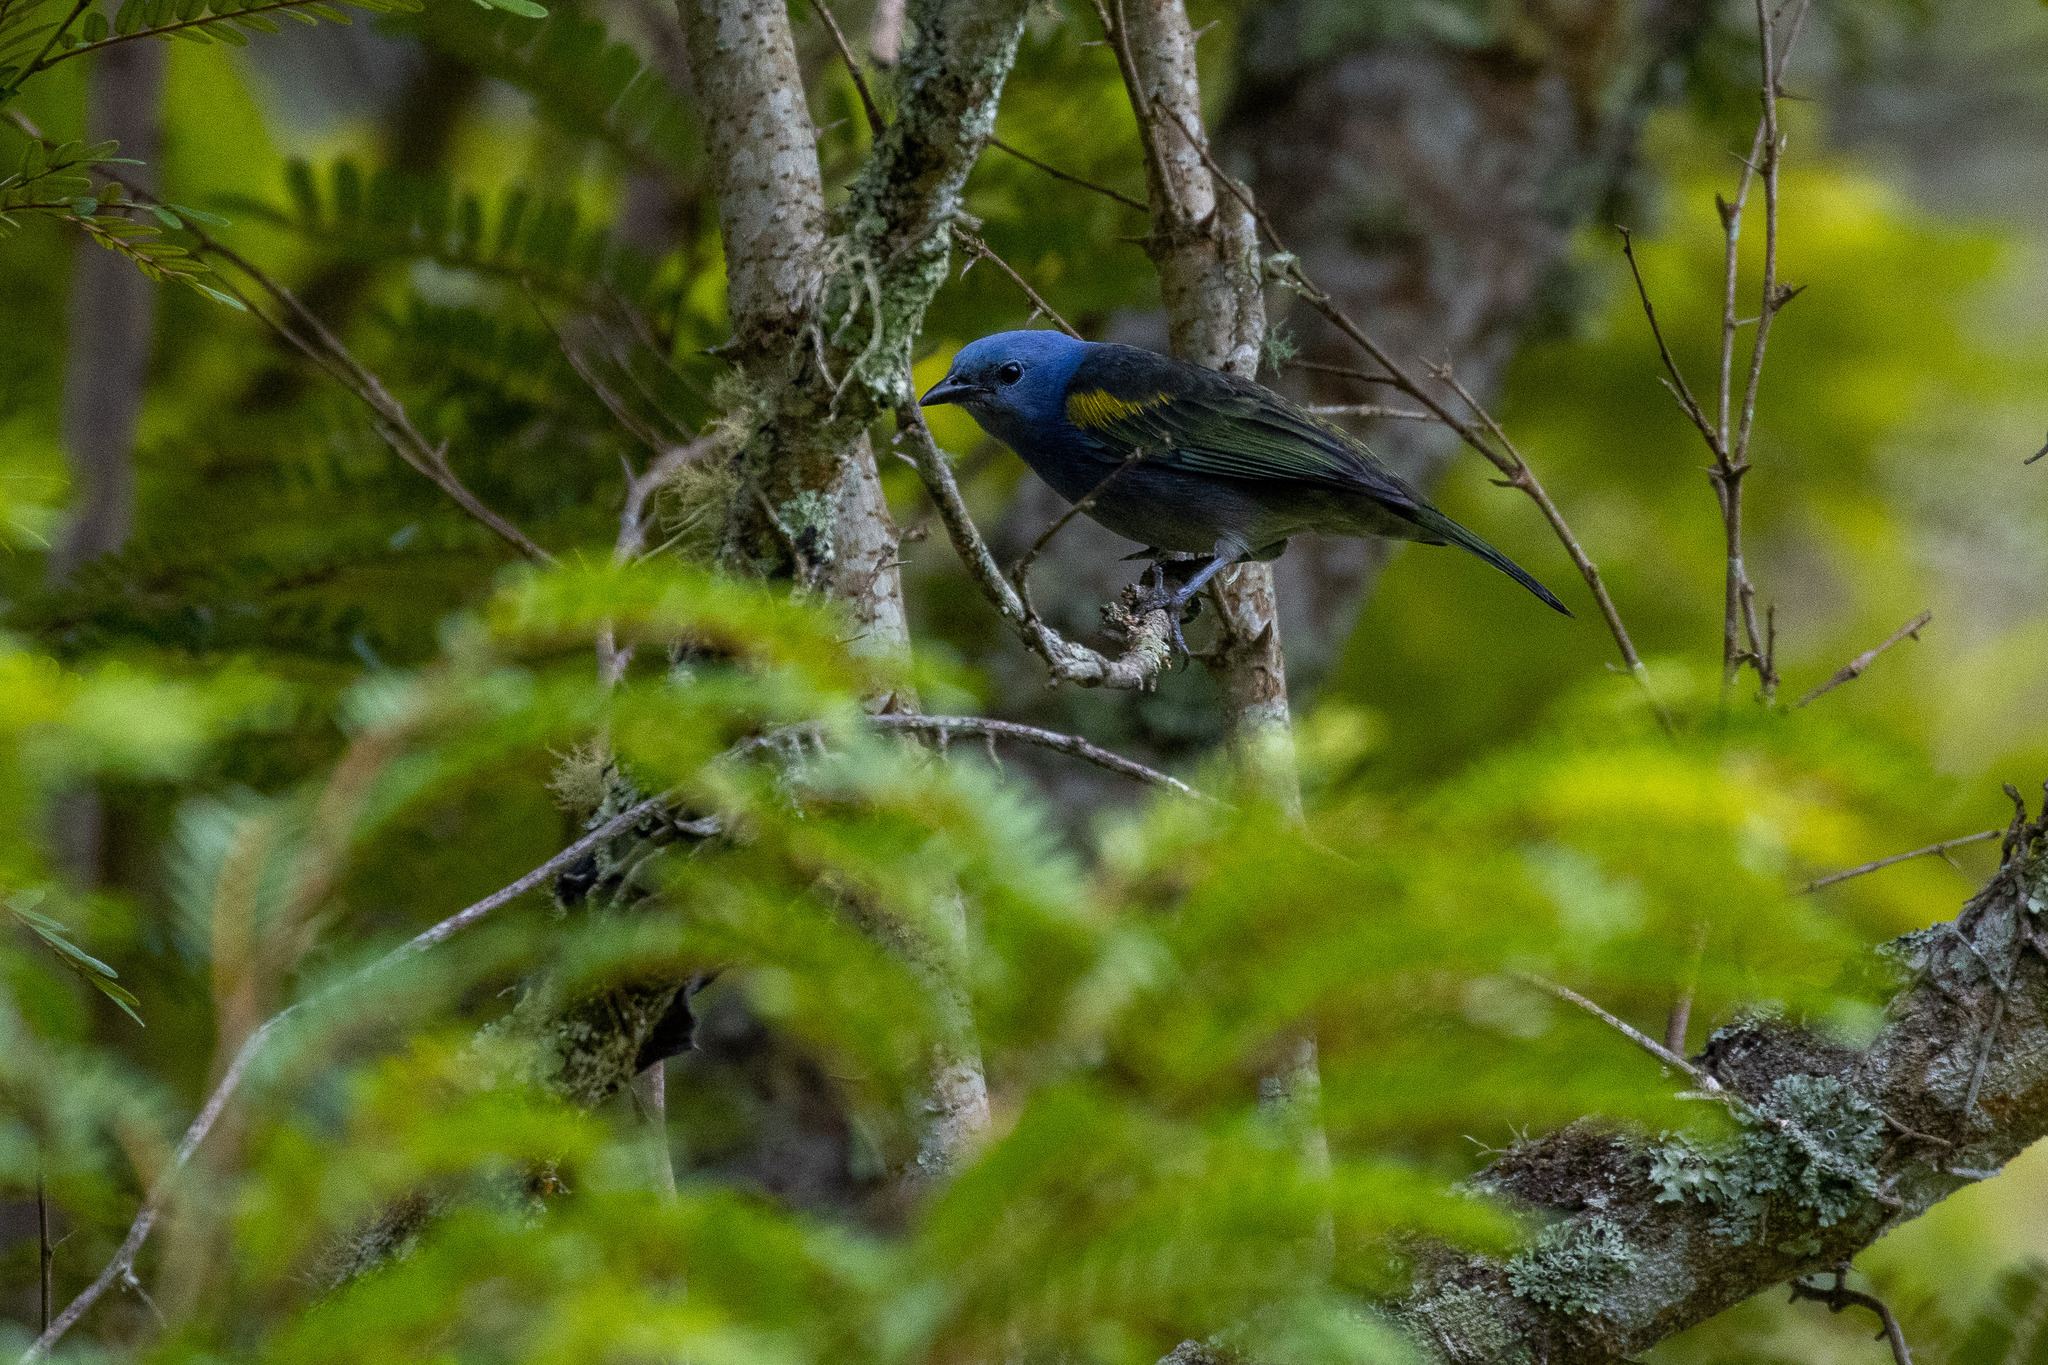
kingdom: Animalia
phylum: Chordata
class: Aves
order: Passeriformes
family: Thraupidae
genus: Thraupis
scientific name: Thraupis ornata
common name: Golden-chevroned tanager
